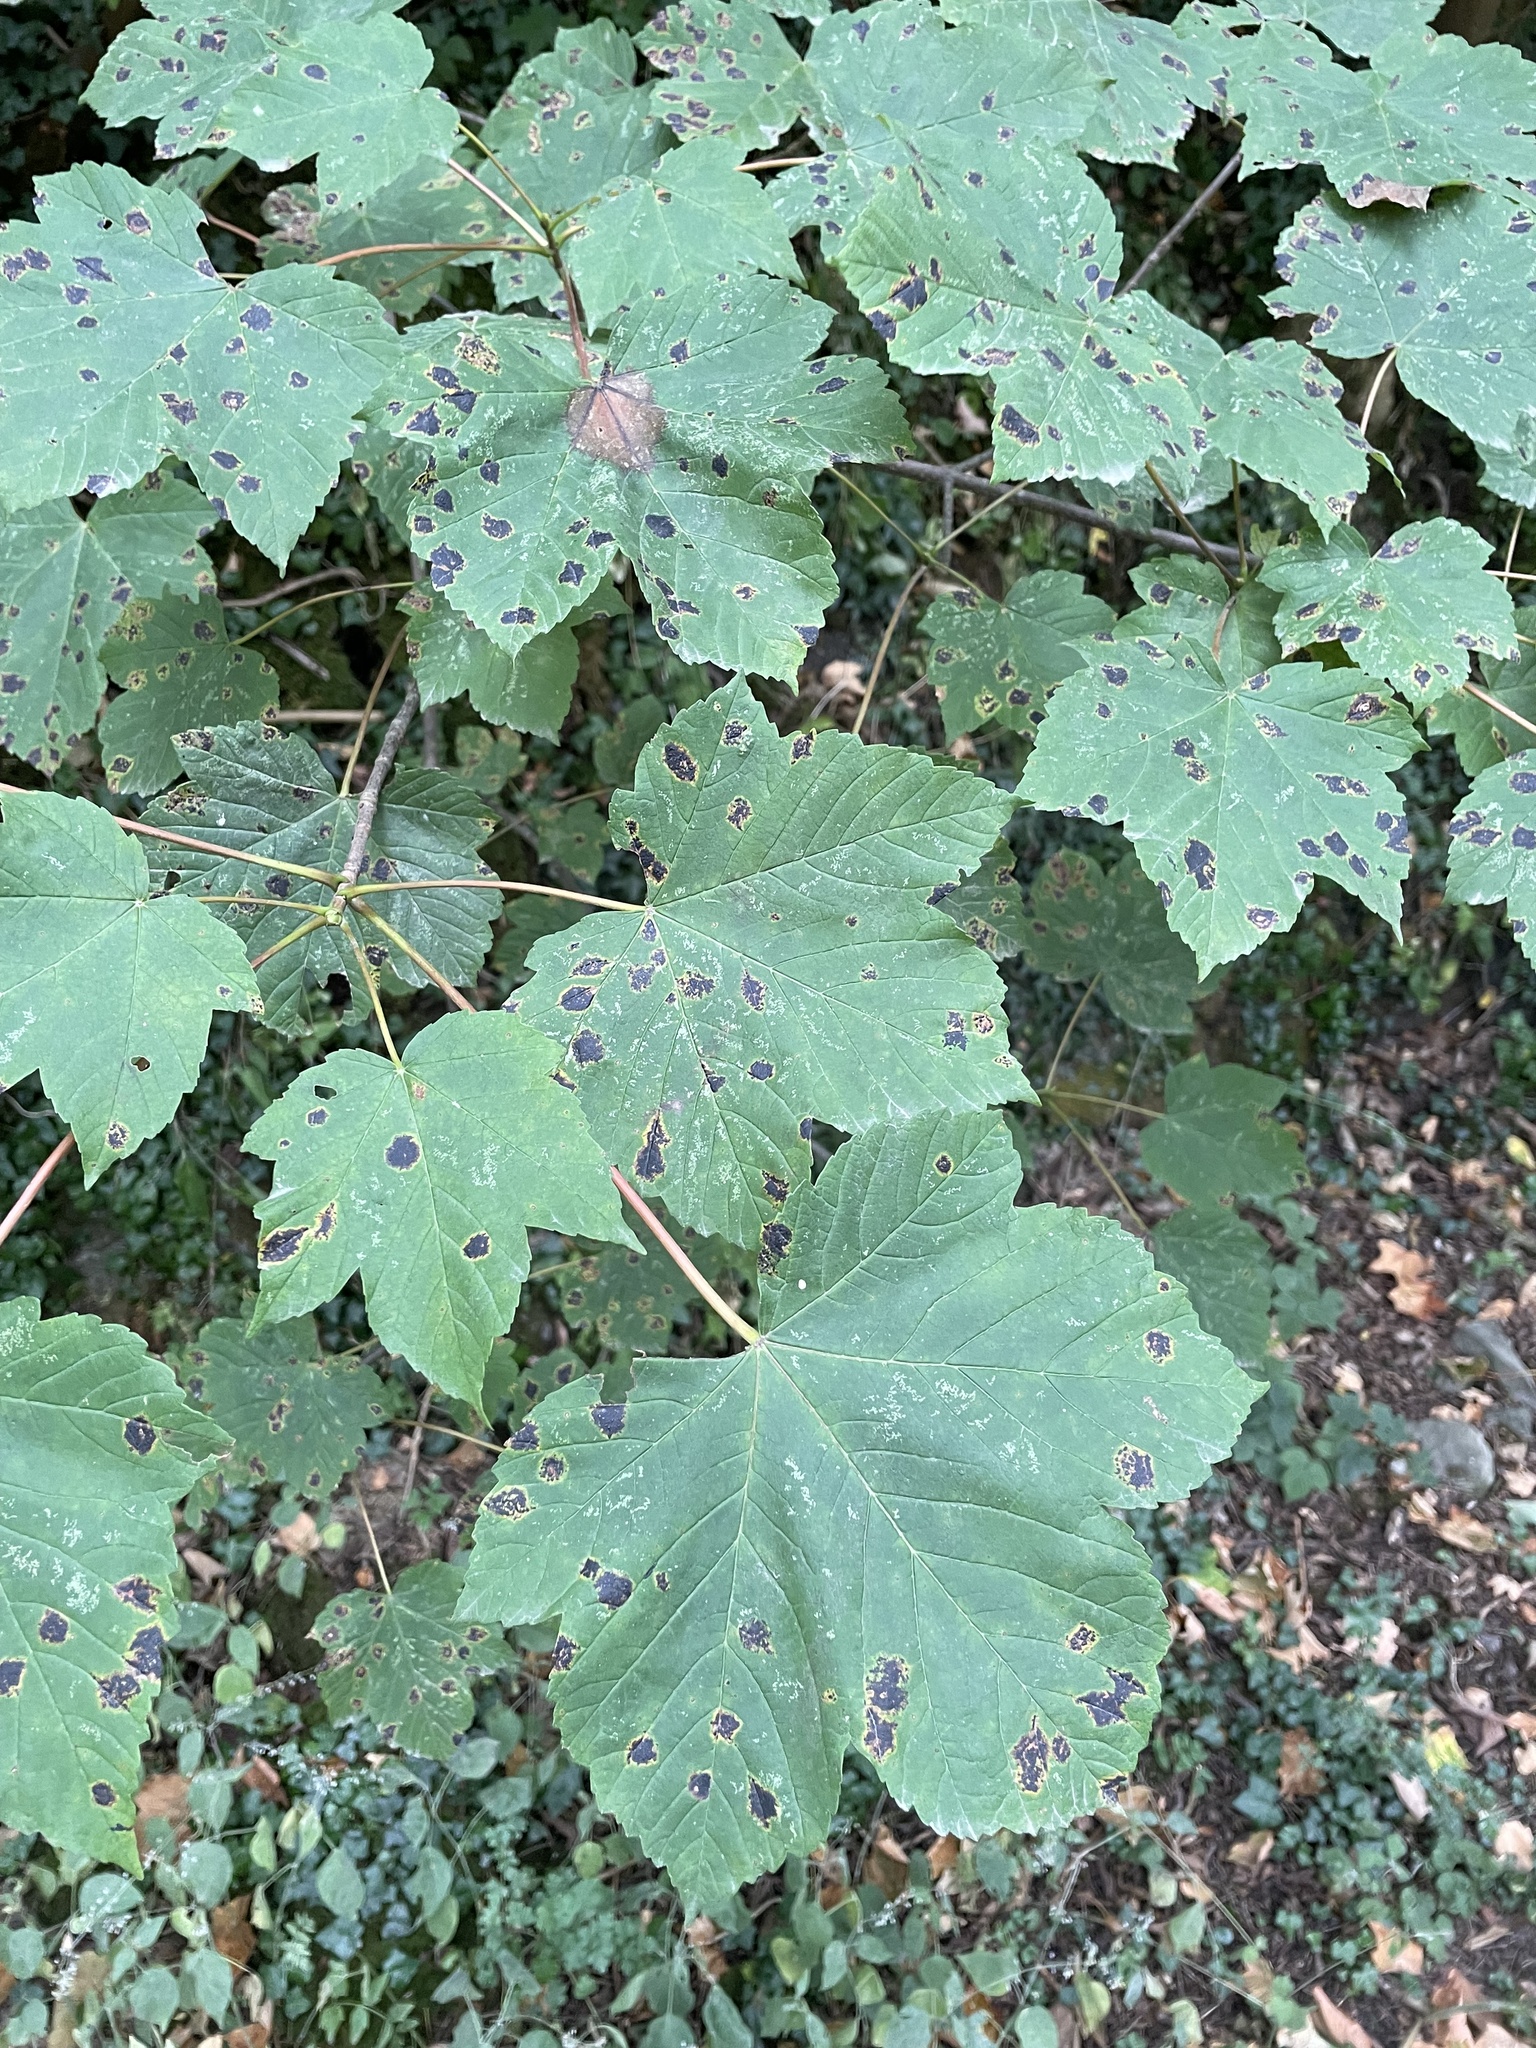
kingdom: Plantae
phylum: Tracheophyta
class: Magnoliopsida
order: Sapindales
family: Sapindaceae
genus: Acer
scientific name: Acer pseudoplatanus
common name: Sycamore
